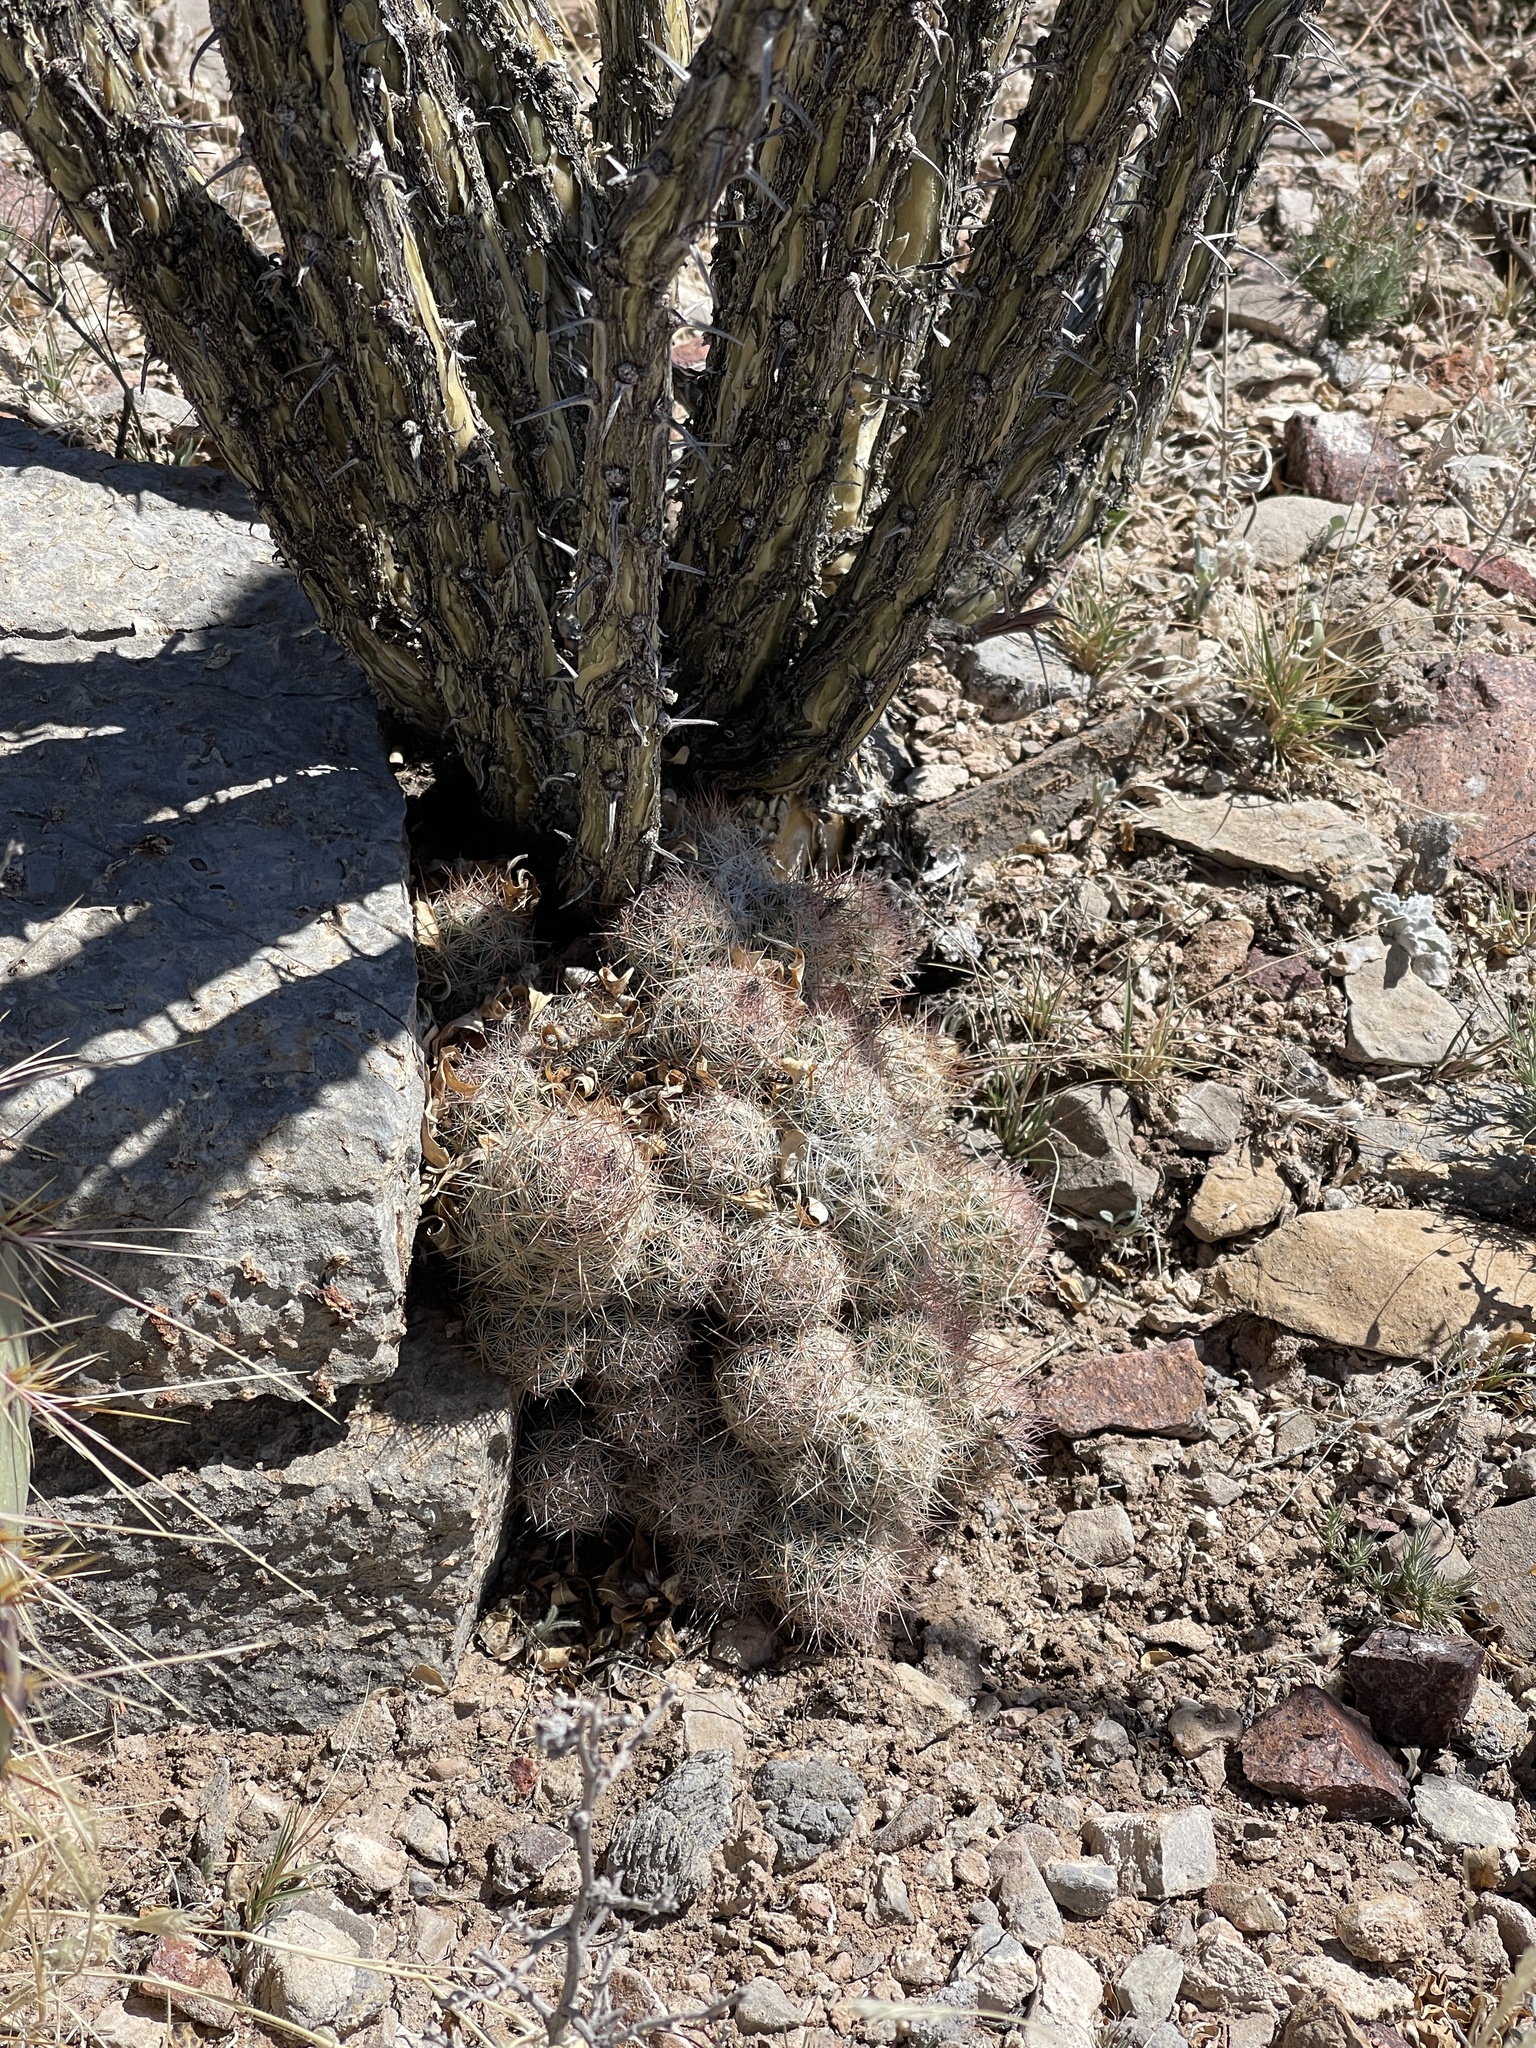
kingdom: Plantae
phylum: Tracheophyta
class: Magnoliopsida
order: Caryophyllales
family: Cactaceae
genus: Pelecyphora
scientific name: Pelecyphora tuberculosa
